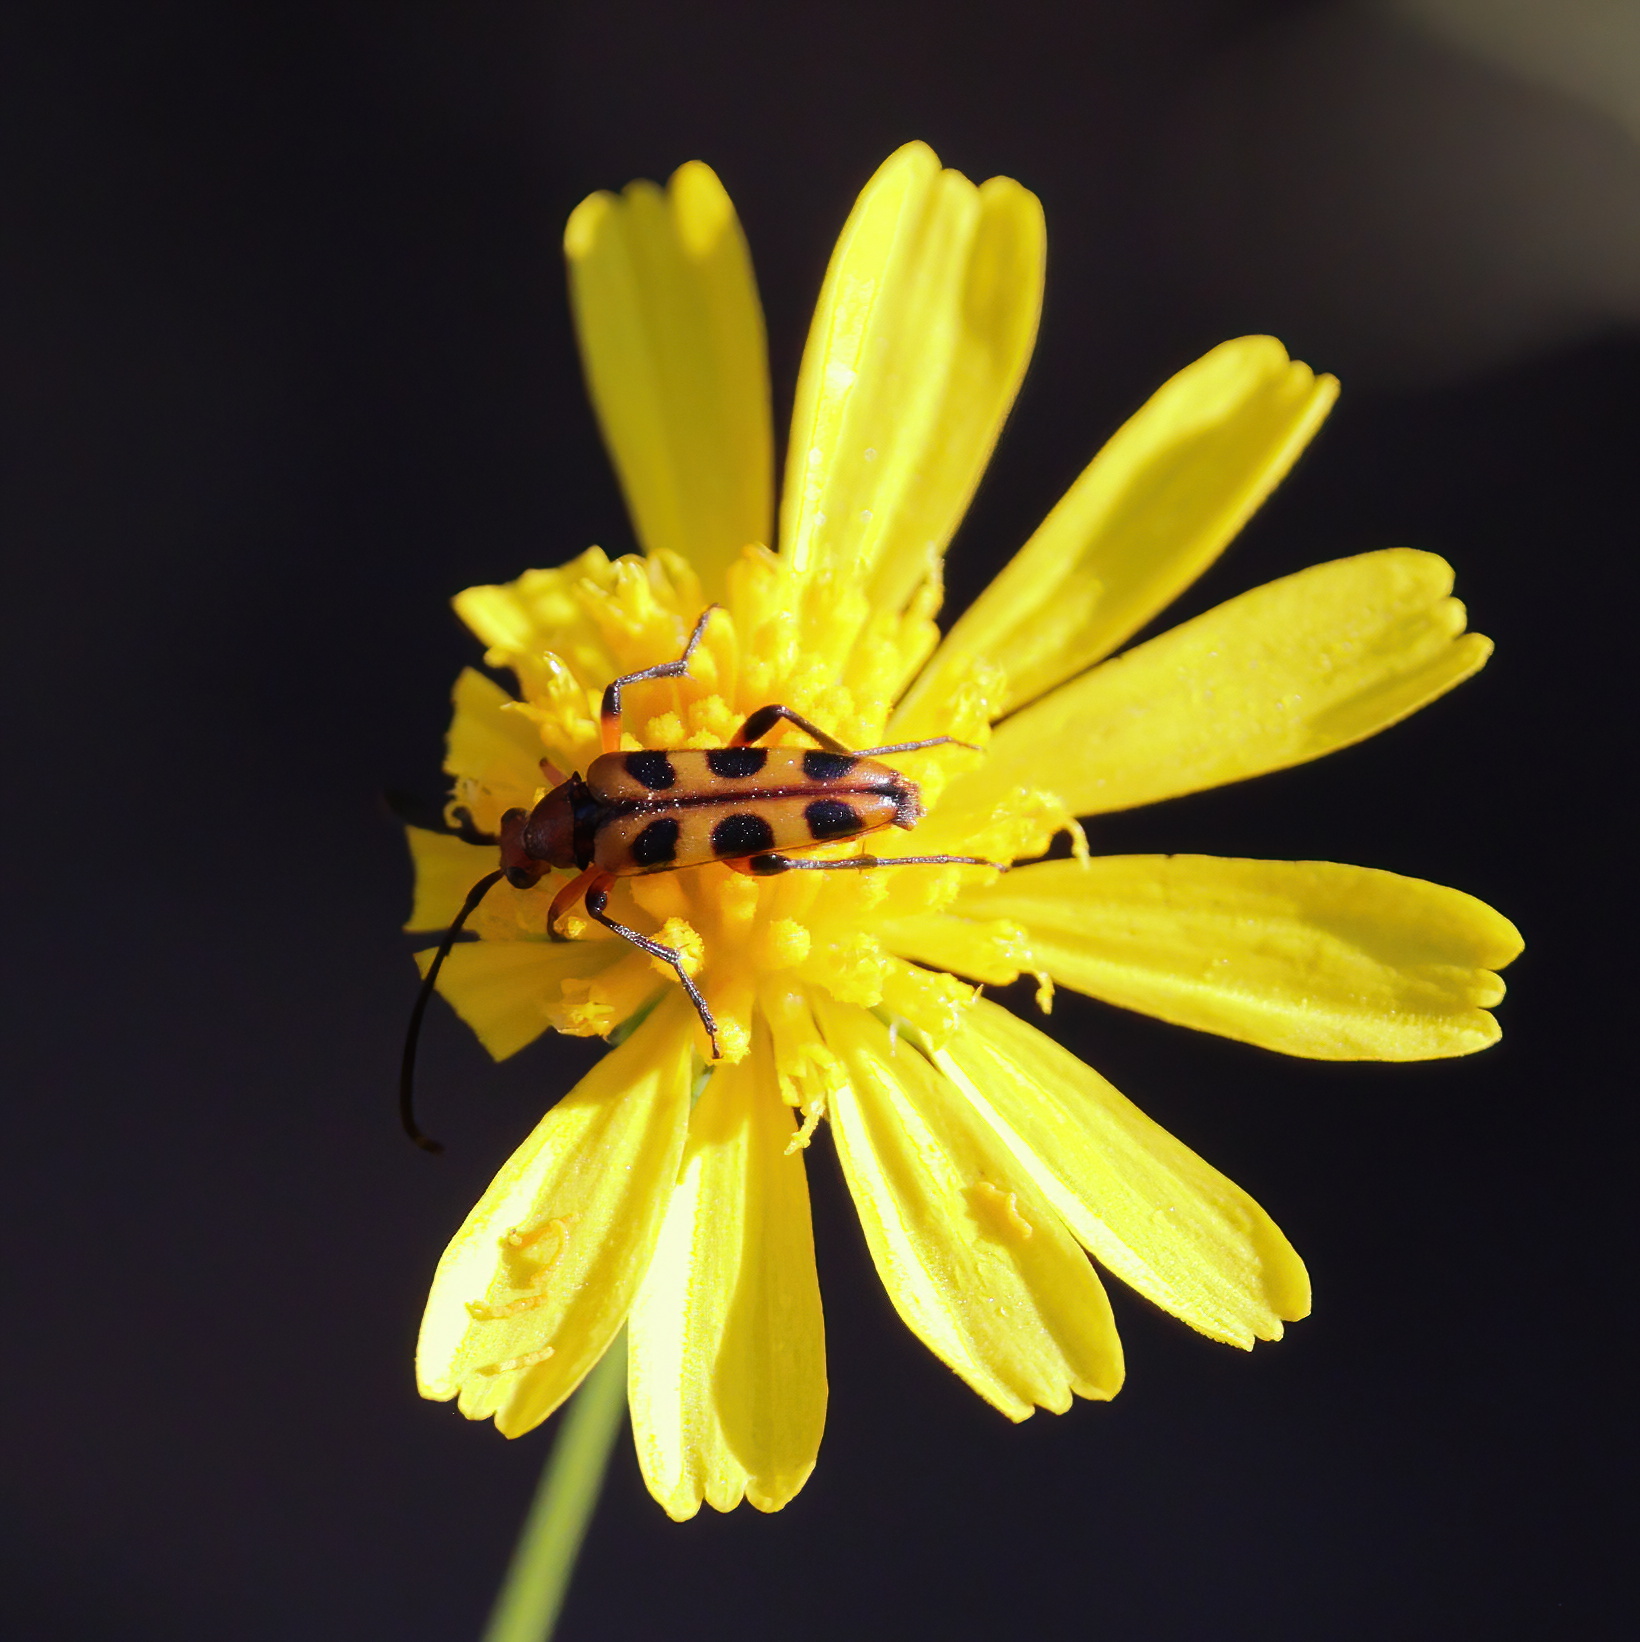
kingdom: Animalia
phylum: Arthropoda
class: Insecta
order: Coleoptera
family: Cerambycidae
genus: Strangalia
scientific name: Strangalia sexnotata
